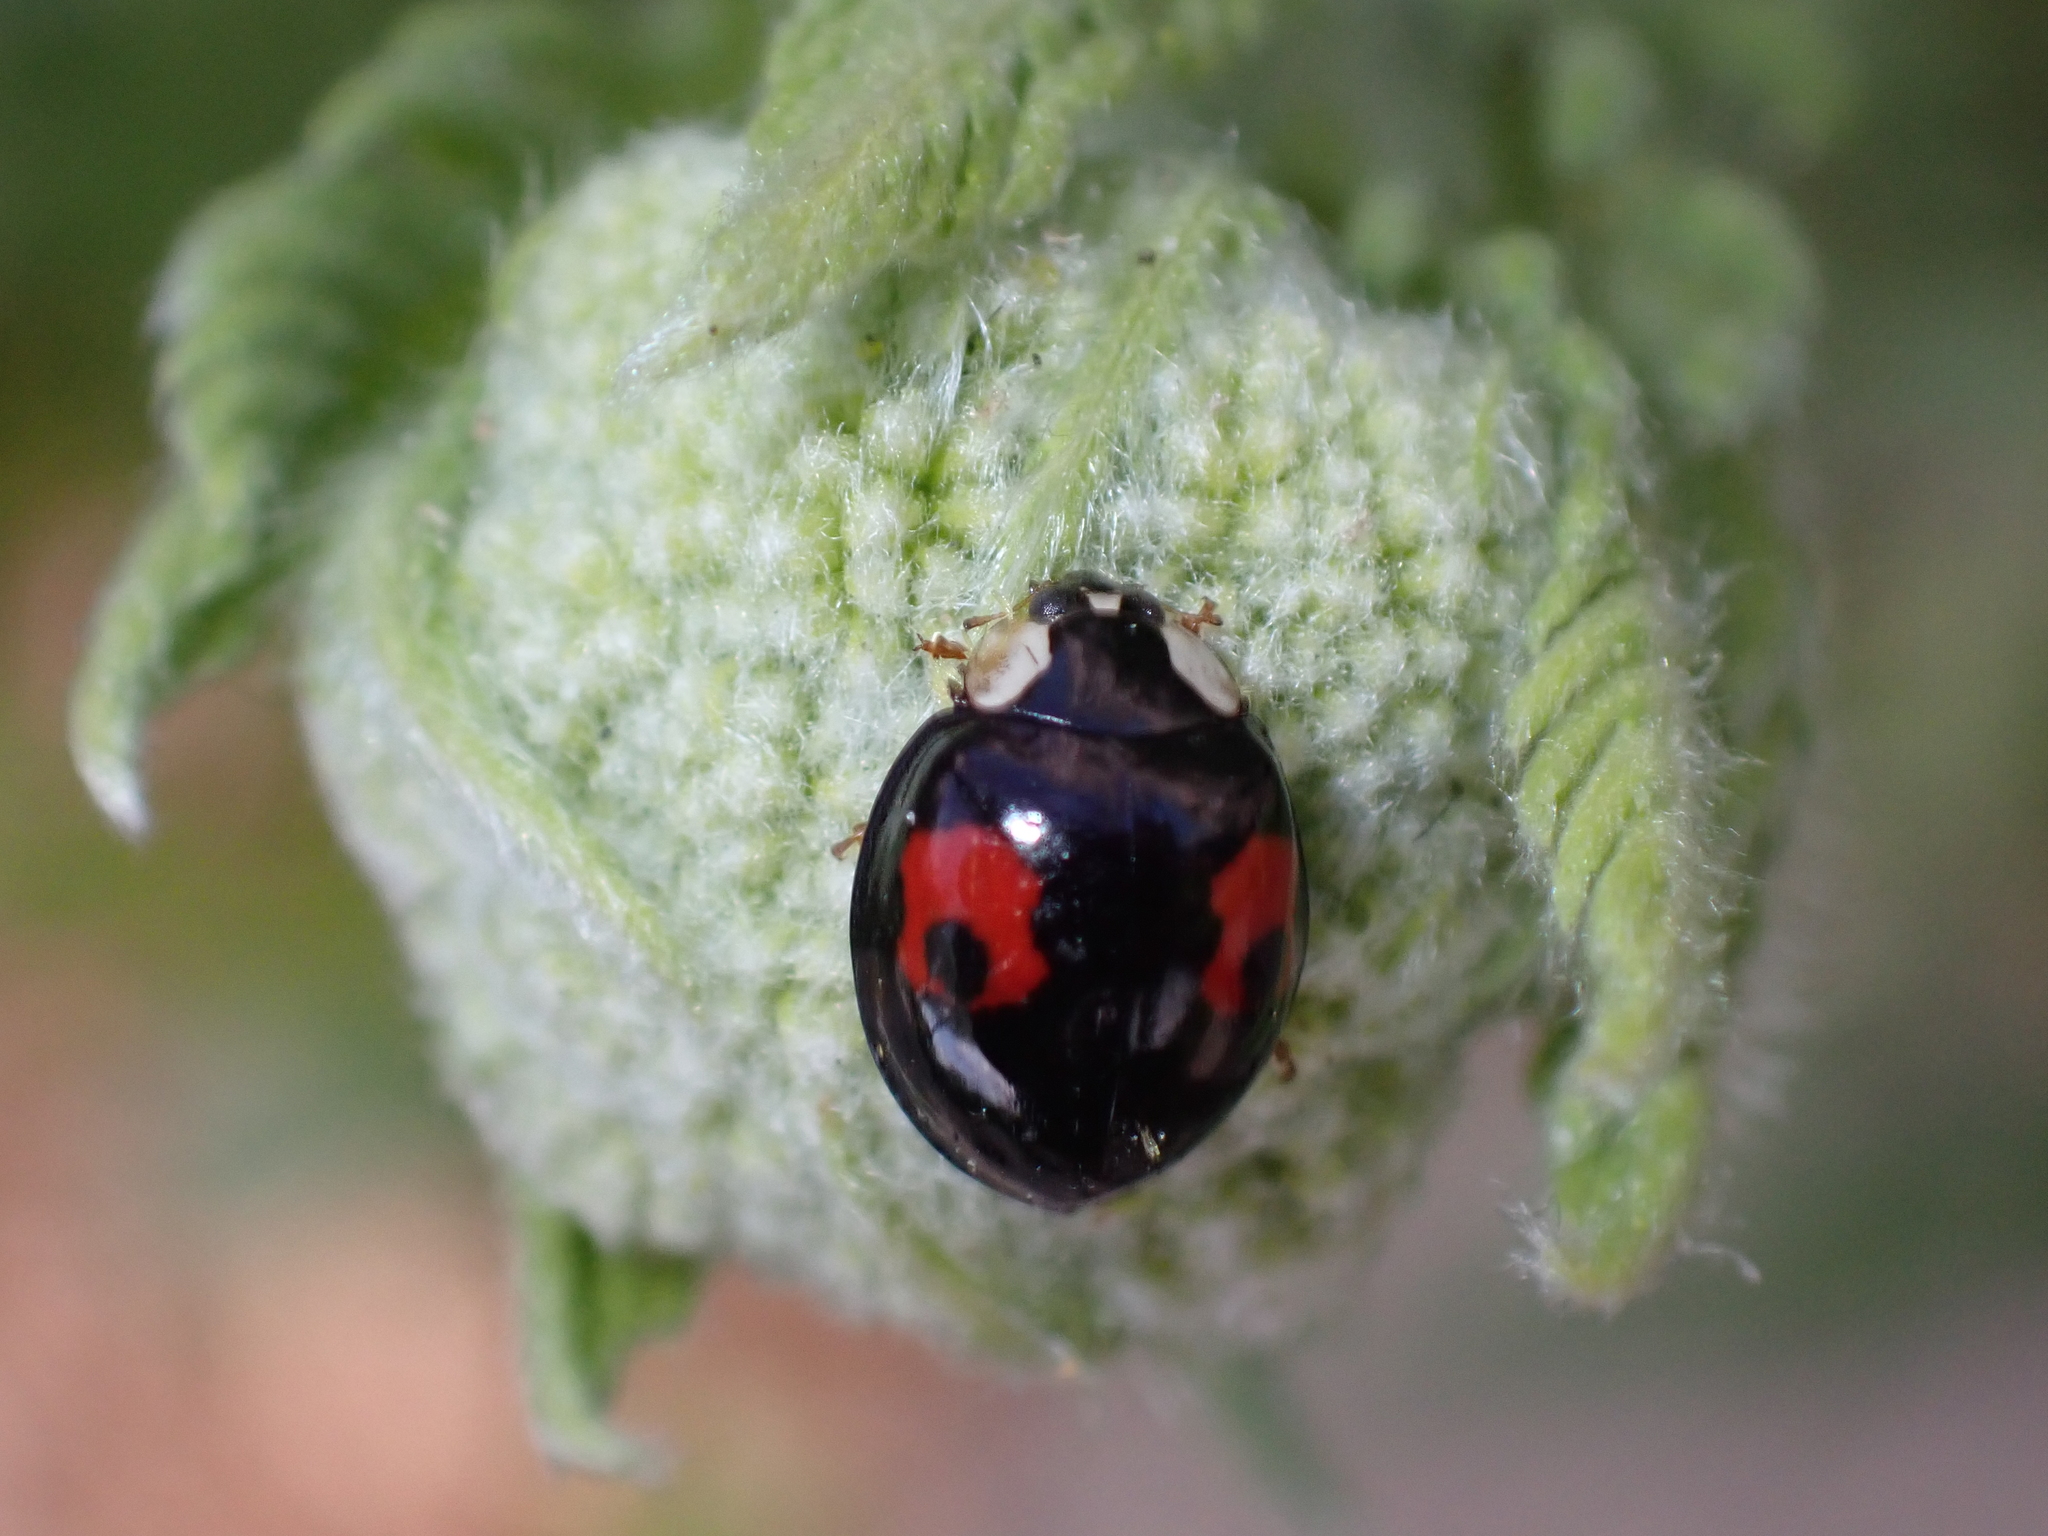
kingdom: Animalia
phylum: Arthropoda
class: Insecta
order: Coleoptera
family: Coccinellidae
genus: Harmonia
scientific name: Harmonia axyridis
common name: Harlequin ladybird
